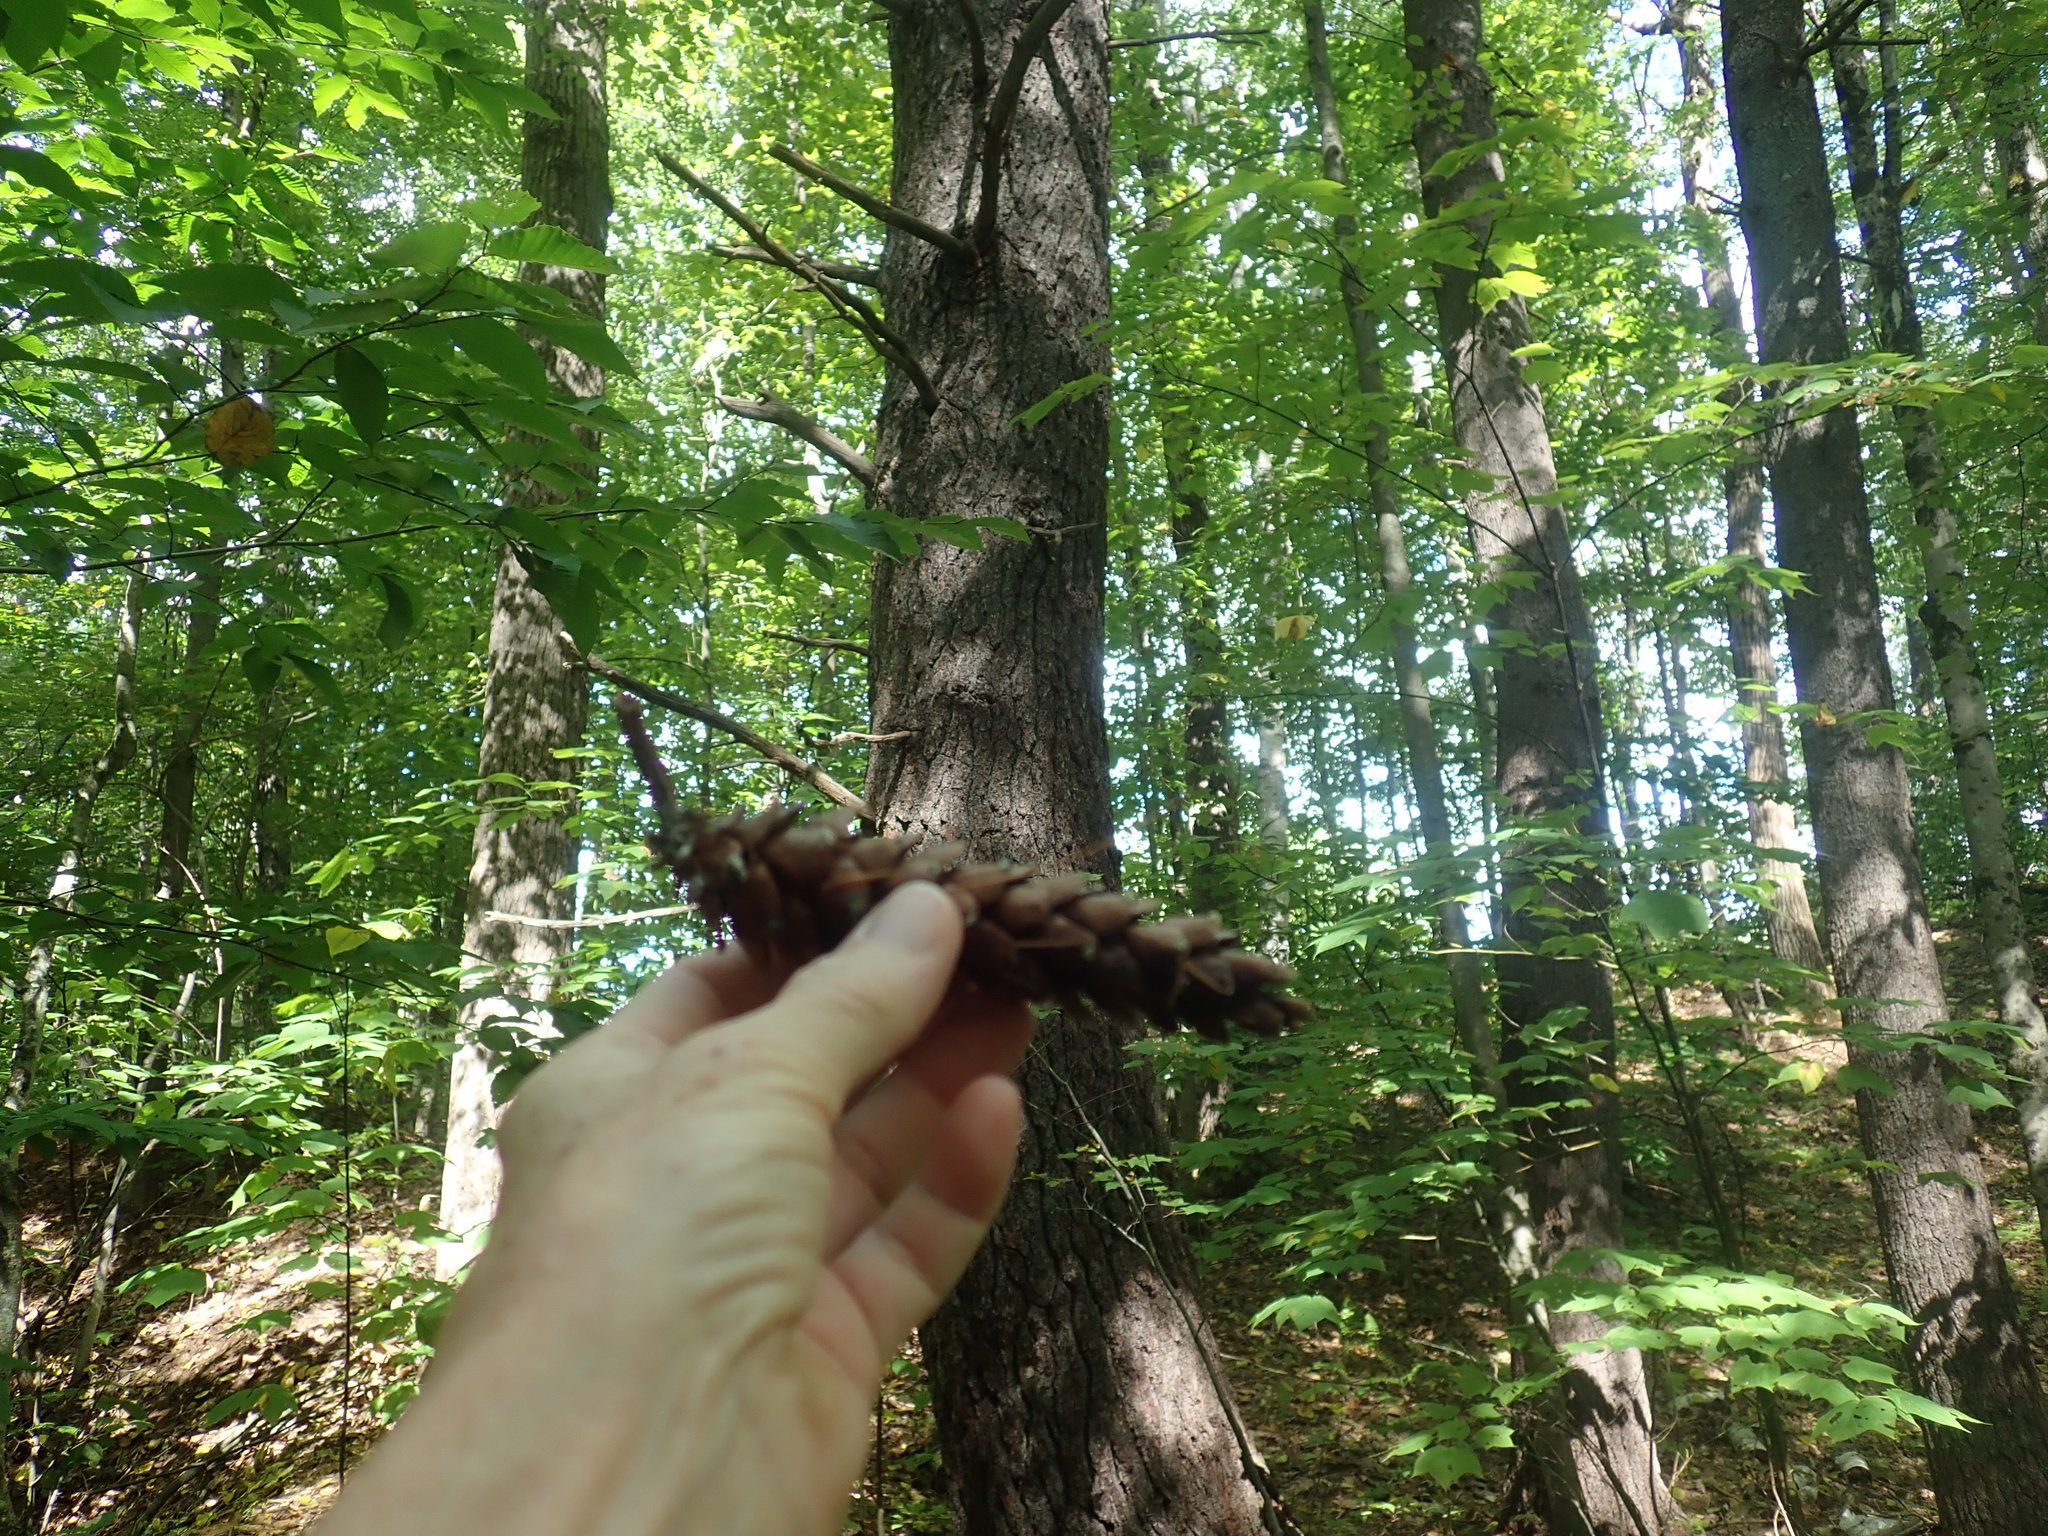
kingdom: Plantae
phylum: Tracheophyta
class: Pinopsida
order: Pinales
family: Pinaceae
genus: Pinus
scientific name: Pinus strobus
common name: Weymouth pine
